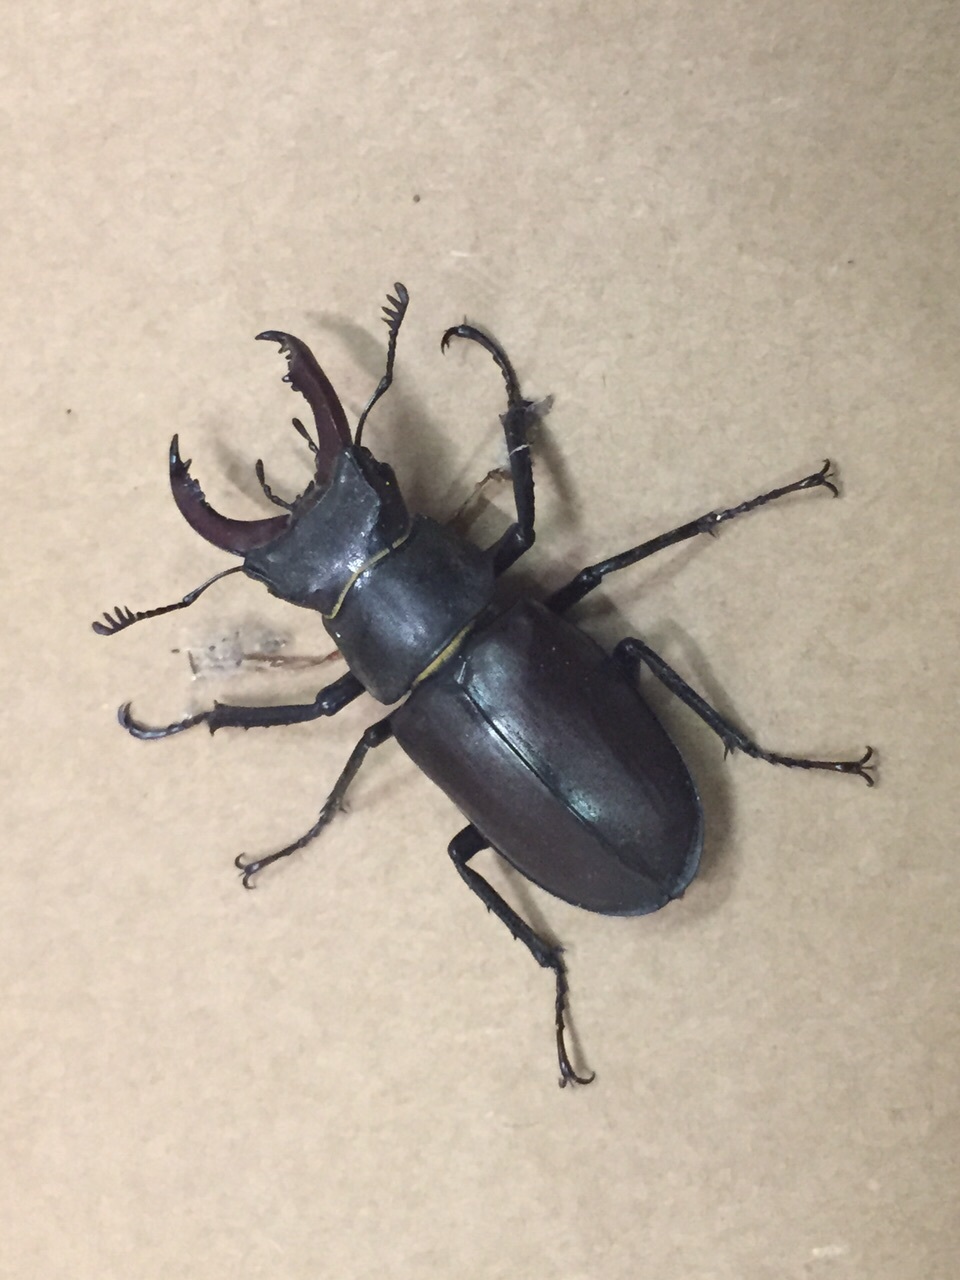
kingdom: Animalia
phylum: Arthropoda
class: Insecta
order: Coleoptera
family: Lucanidae
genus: Lucanus
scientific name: Lucanus cervus
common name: Stag beetle
